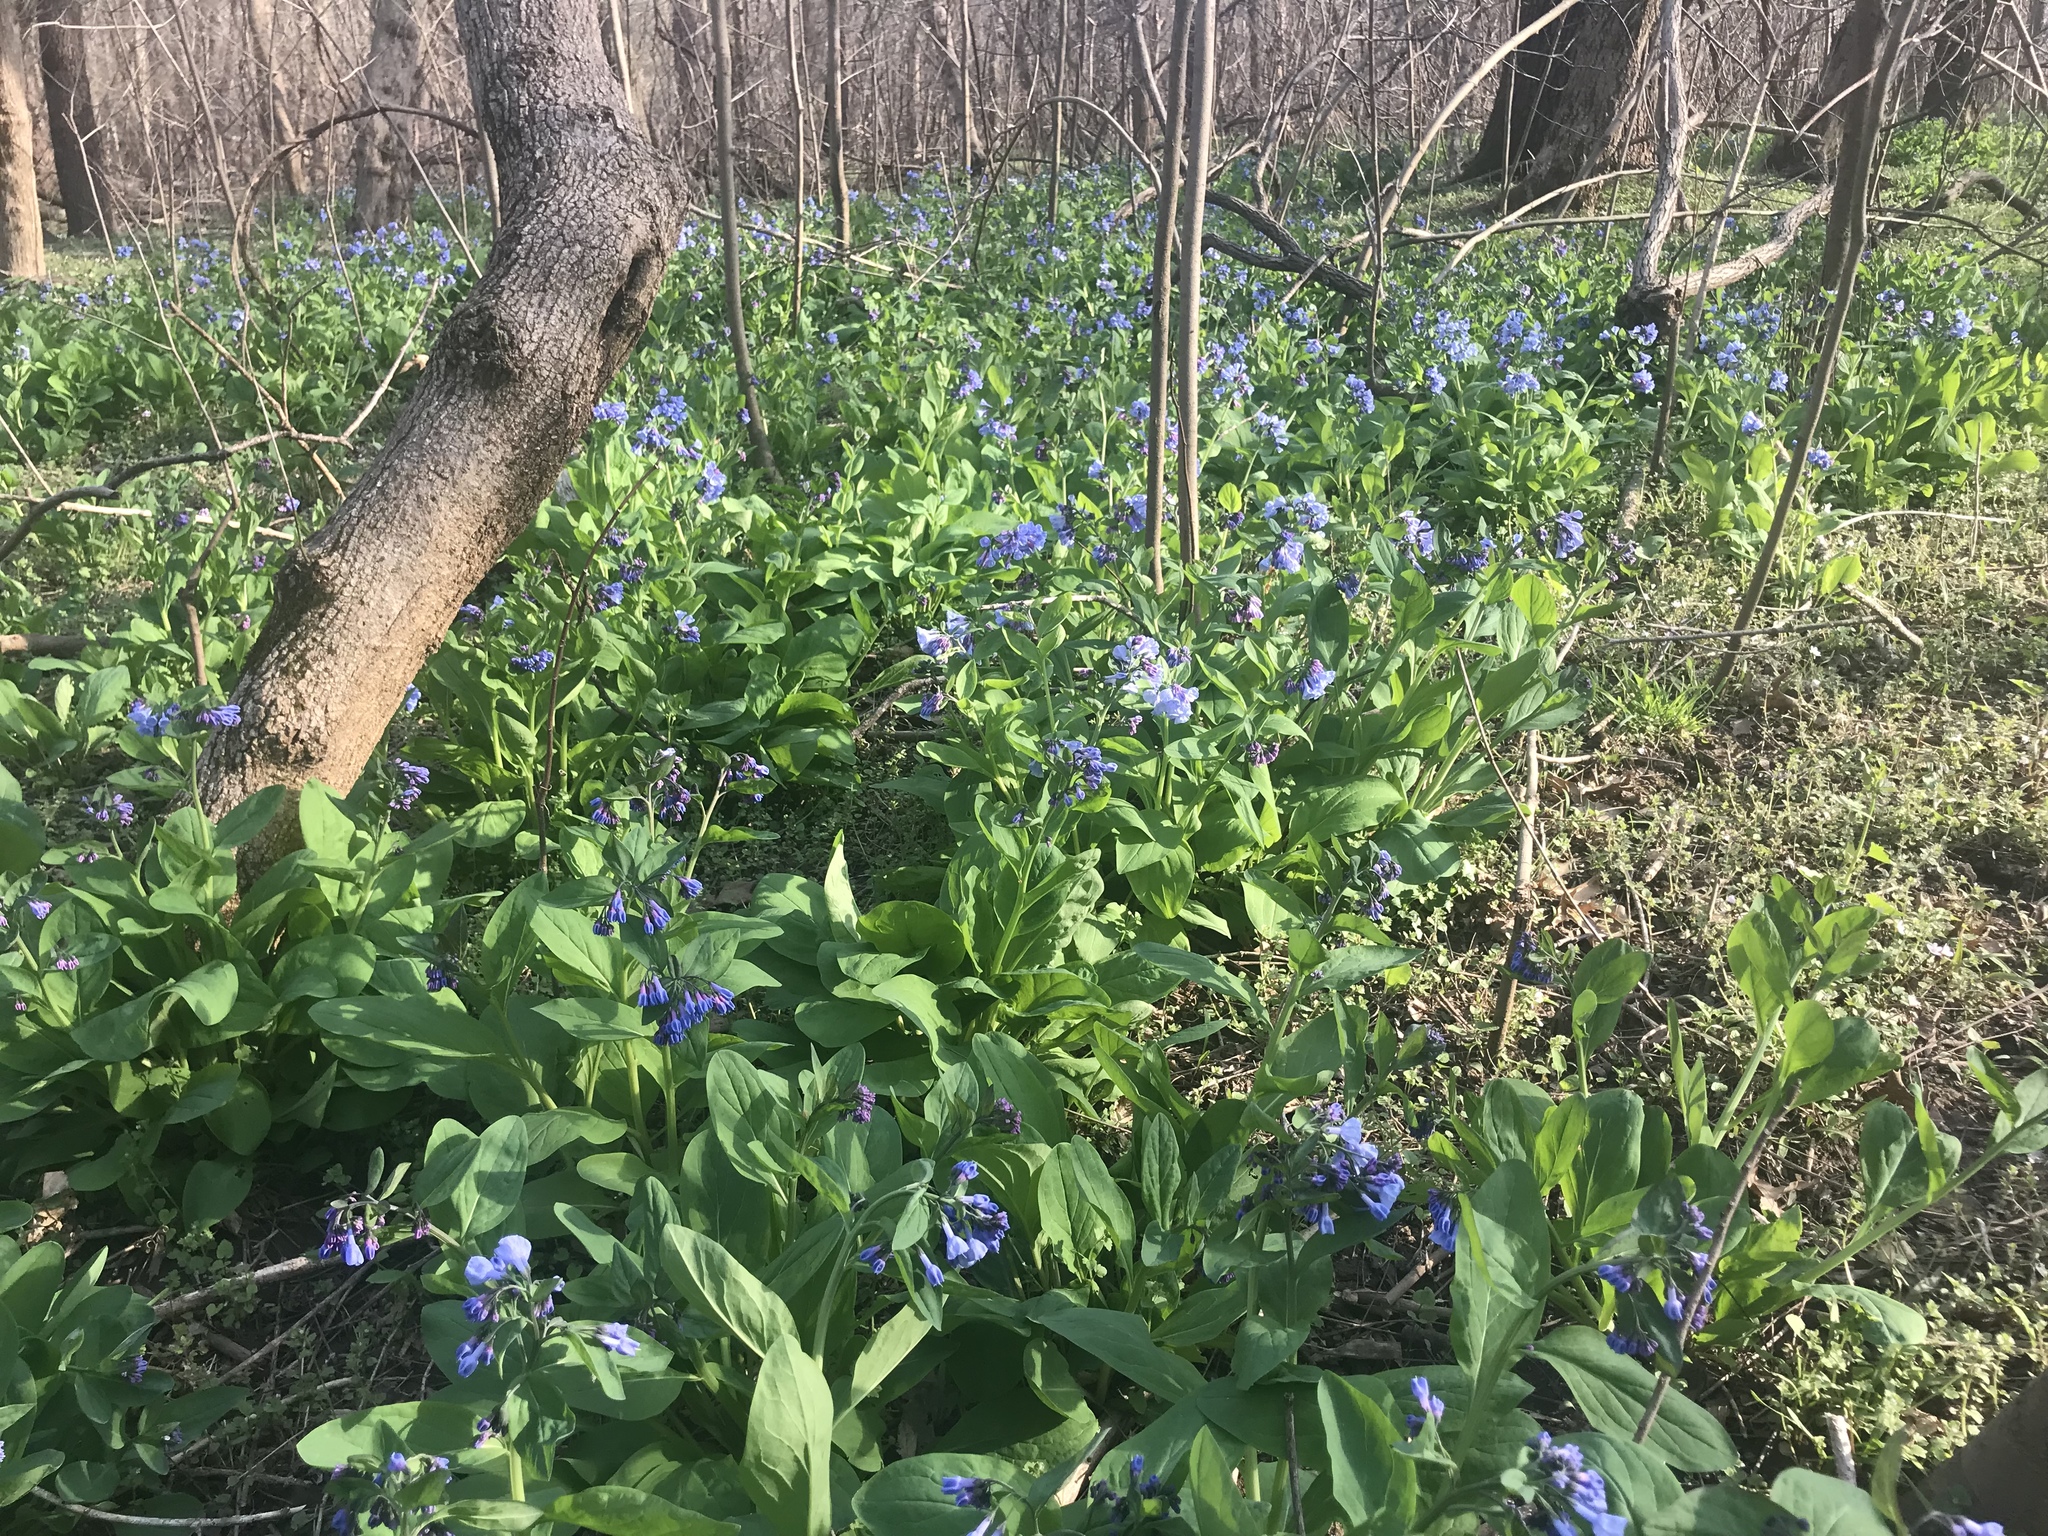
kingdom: Plantae
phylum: Tracheophyta
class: Magnoliopsida
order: Boraginales
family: Boraginaceae
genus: Mertensia
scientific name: Mertensia virginica
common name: Virginia bluebells
